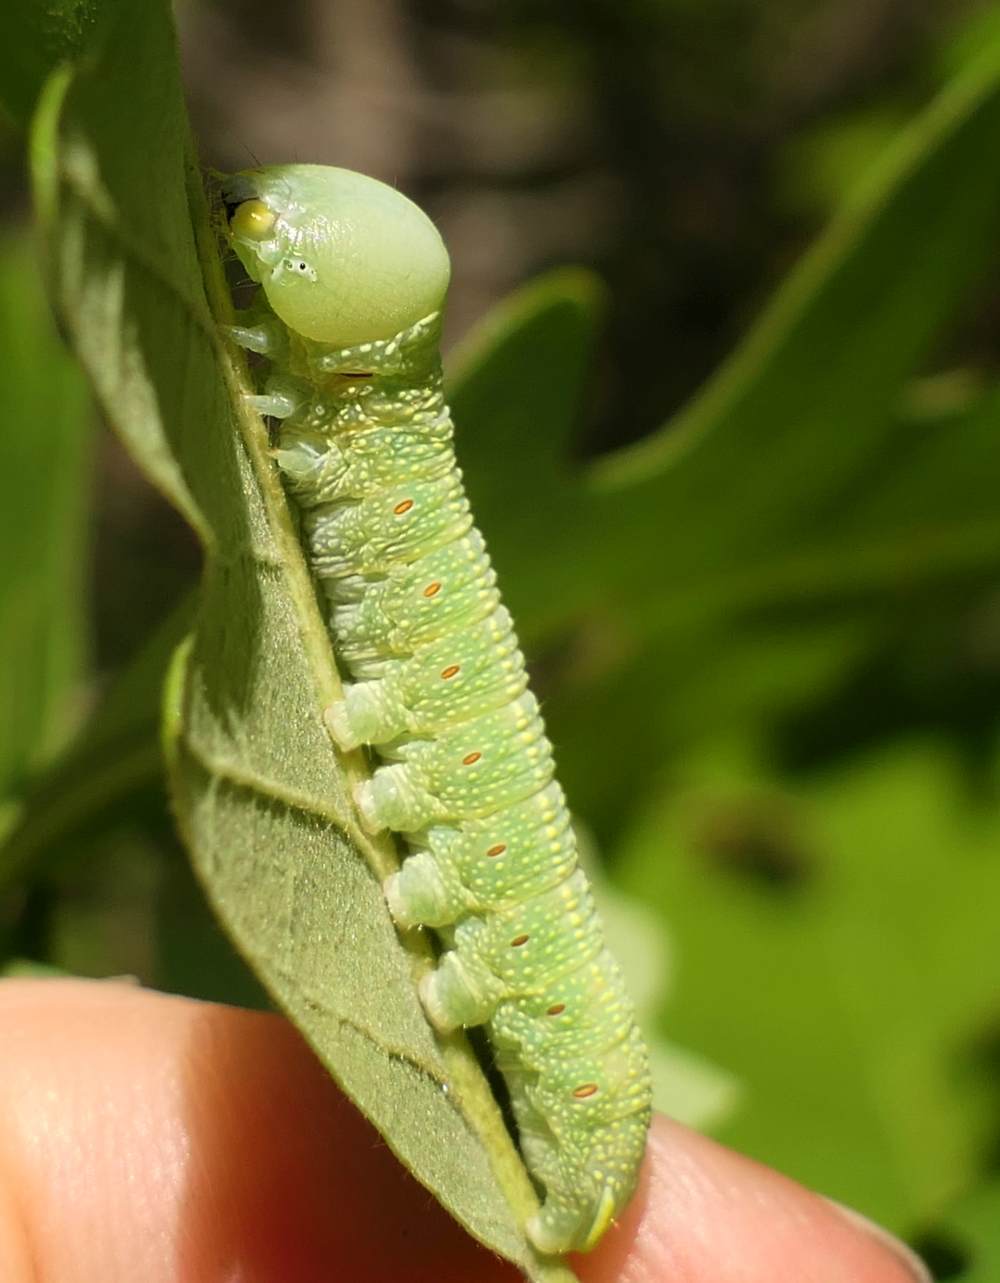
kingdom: Animalia
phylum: Arthropoda
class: Insecta
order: Lepidoptera
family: Notodontidae
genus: Nadata
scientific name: Nadata gibbosa
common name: White-dotted prominent
